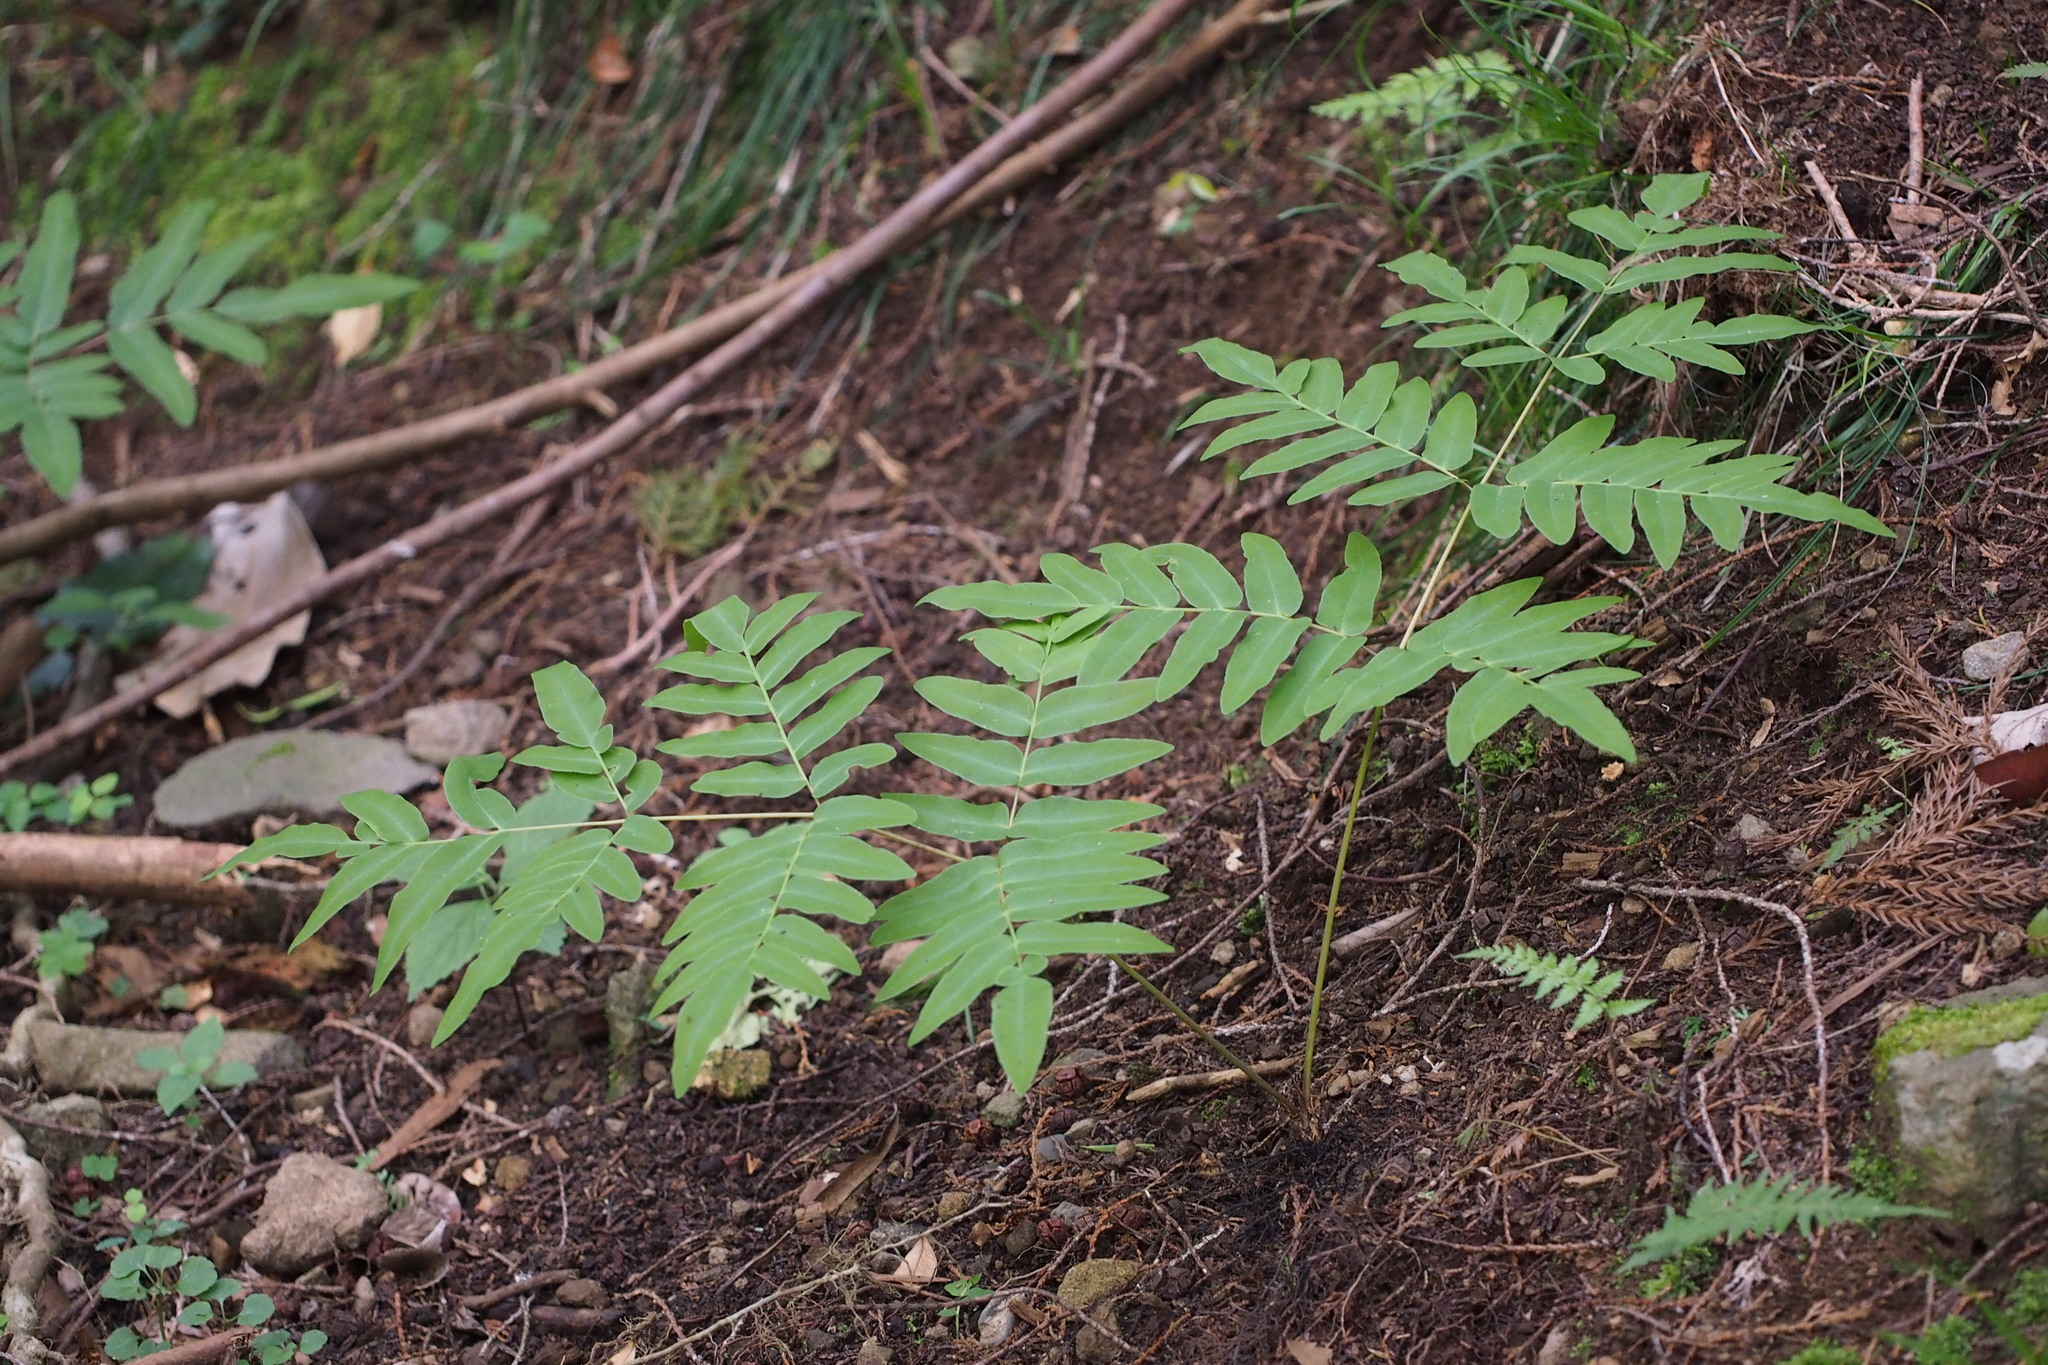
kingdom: Plantae
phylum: Tracheophyta
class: Polypodiopsida
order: Osmundales
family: Osmundaceae
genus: Osmunda
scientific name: Osmunda japonica
